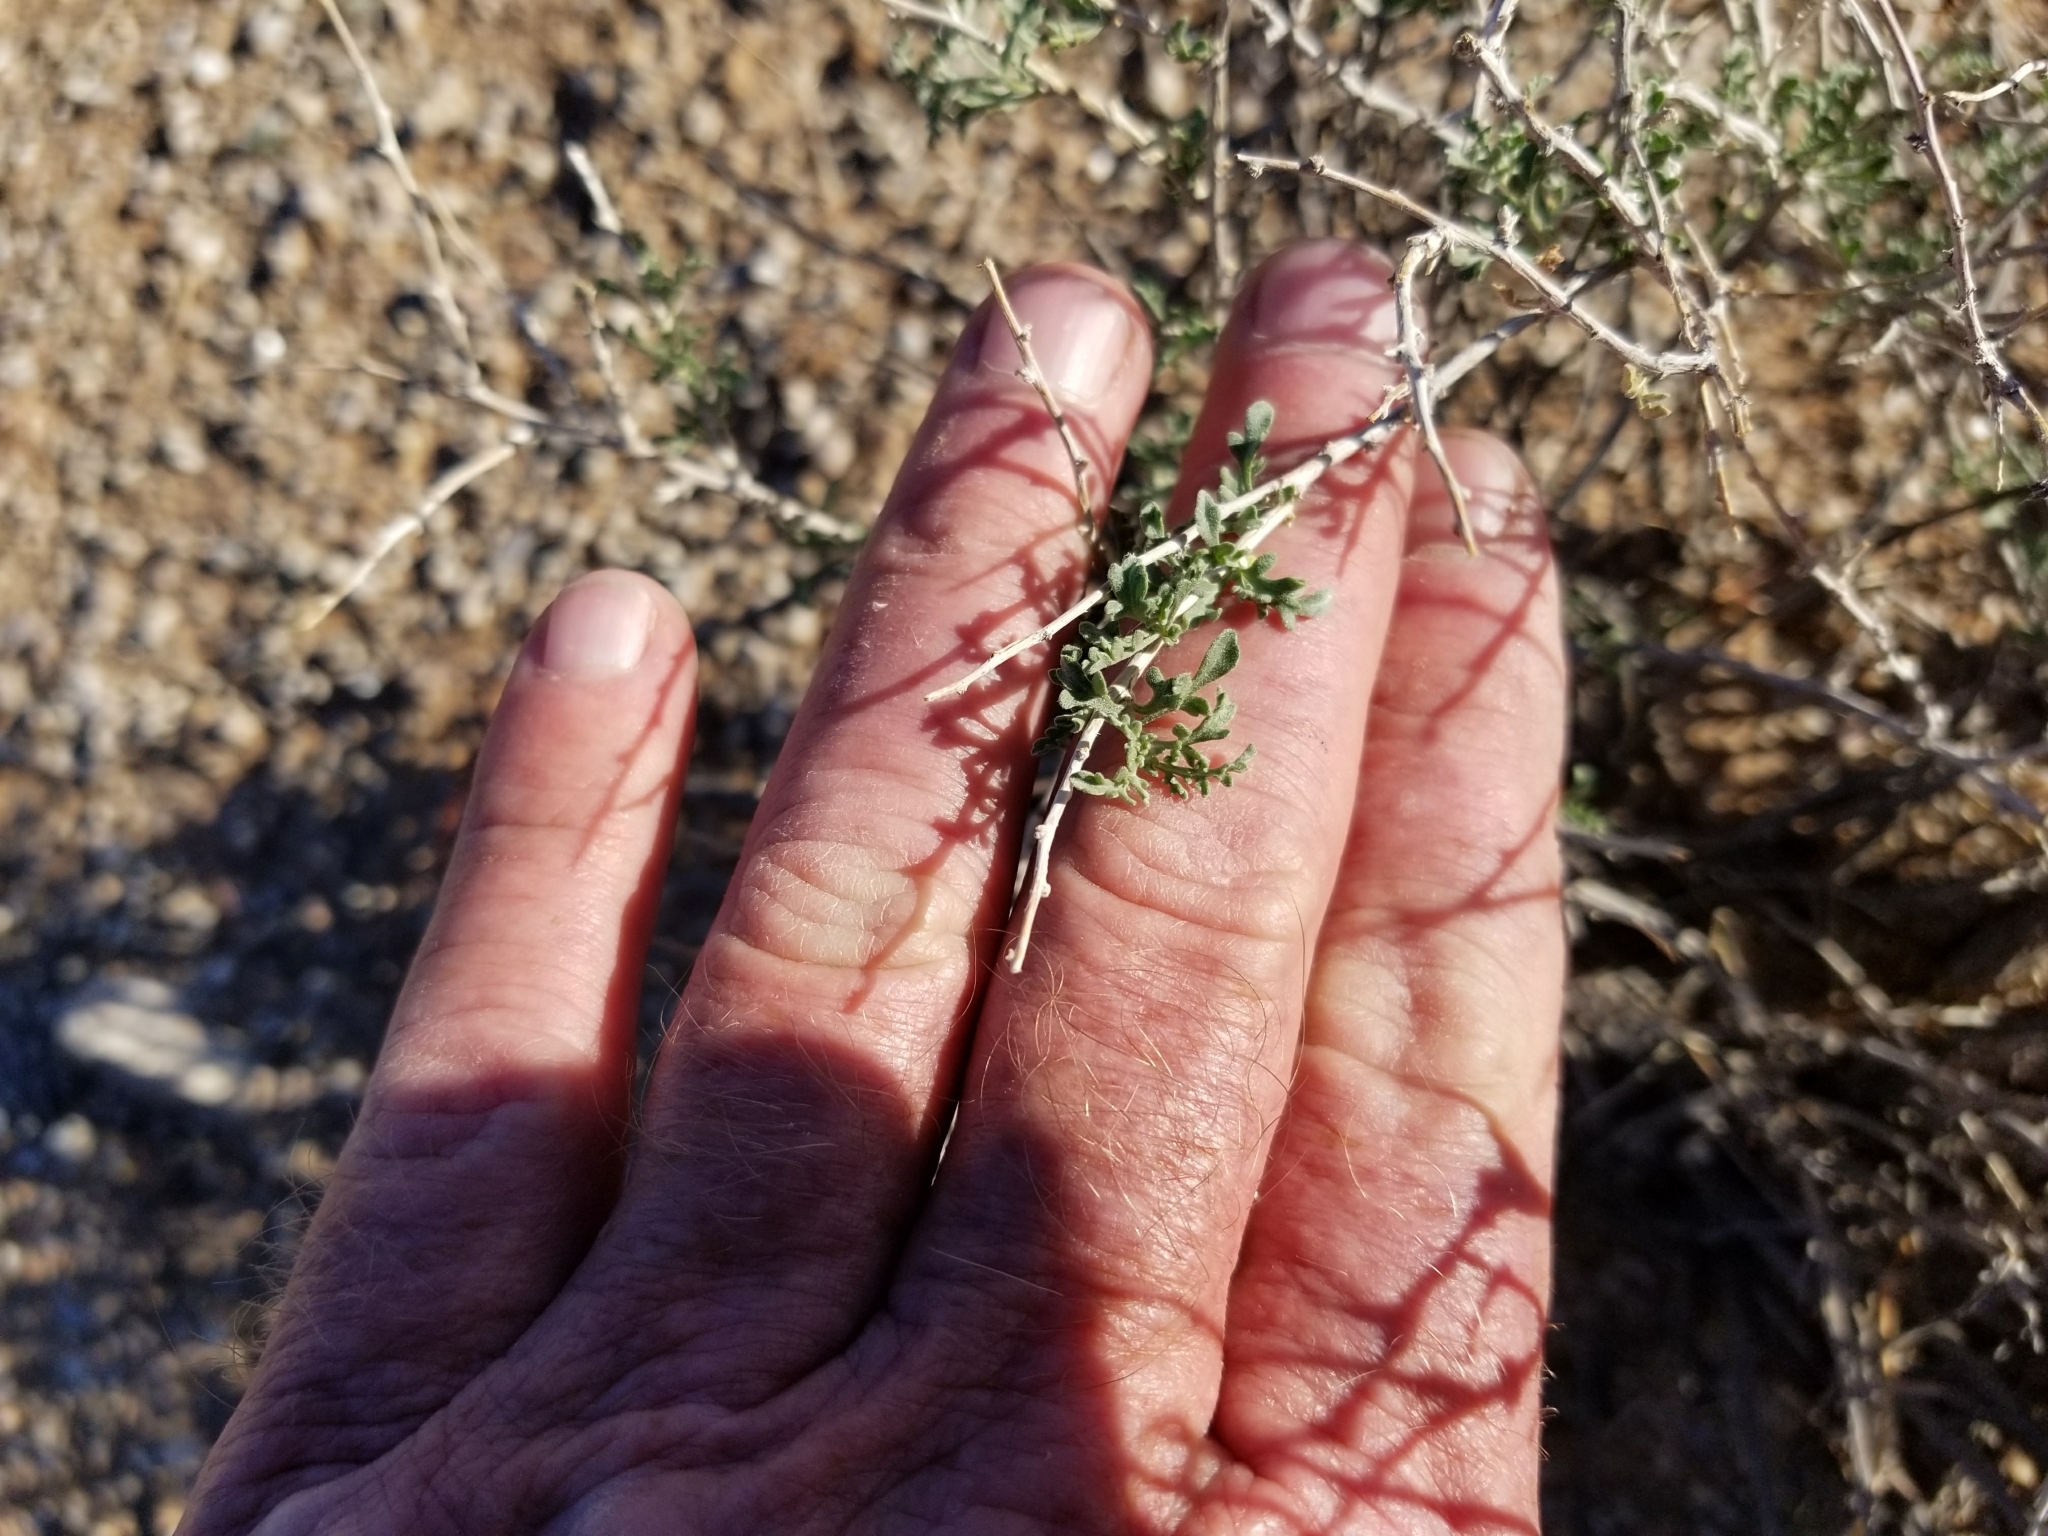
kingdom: Plantae
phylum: Tracheophyta
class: Magnoliopsida
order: Asterales
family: Asteraceae
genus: Ambrosia
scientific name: Ambrosia dumosa
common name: Bur-sage
